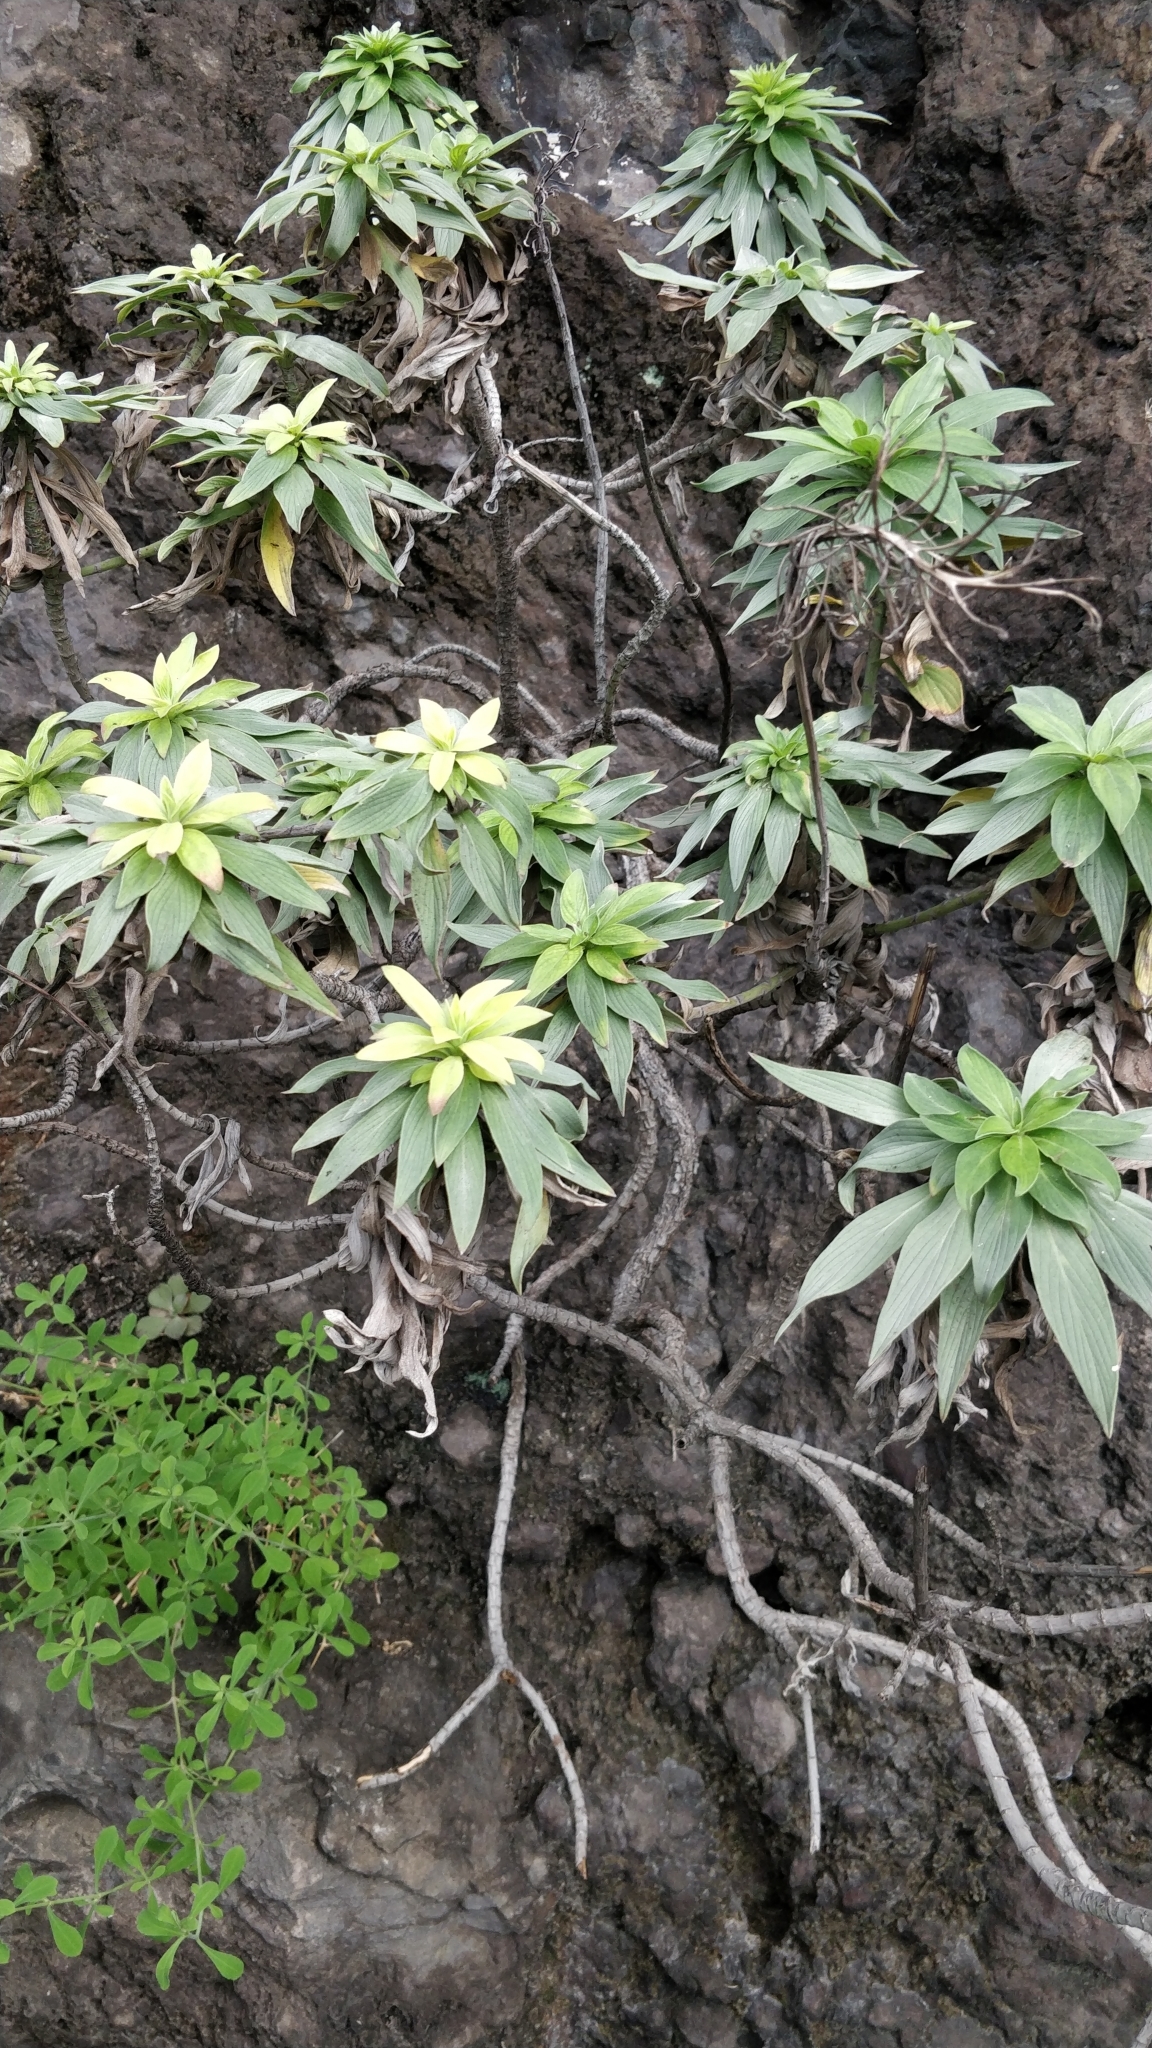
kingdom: Plantae
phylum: Tracheophyta
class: Magnoliopsida
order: Boraginales
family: Boraginaceae
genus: Echium
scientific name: Echium nervosum
